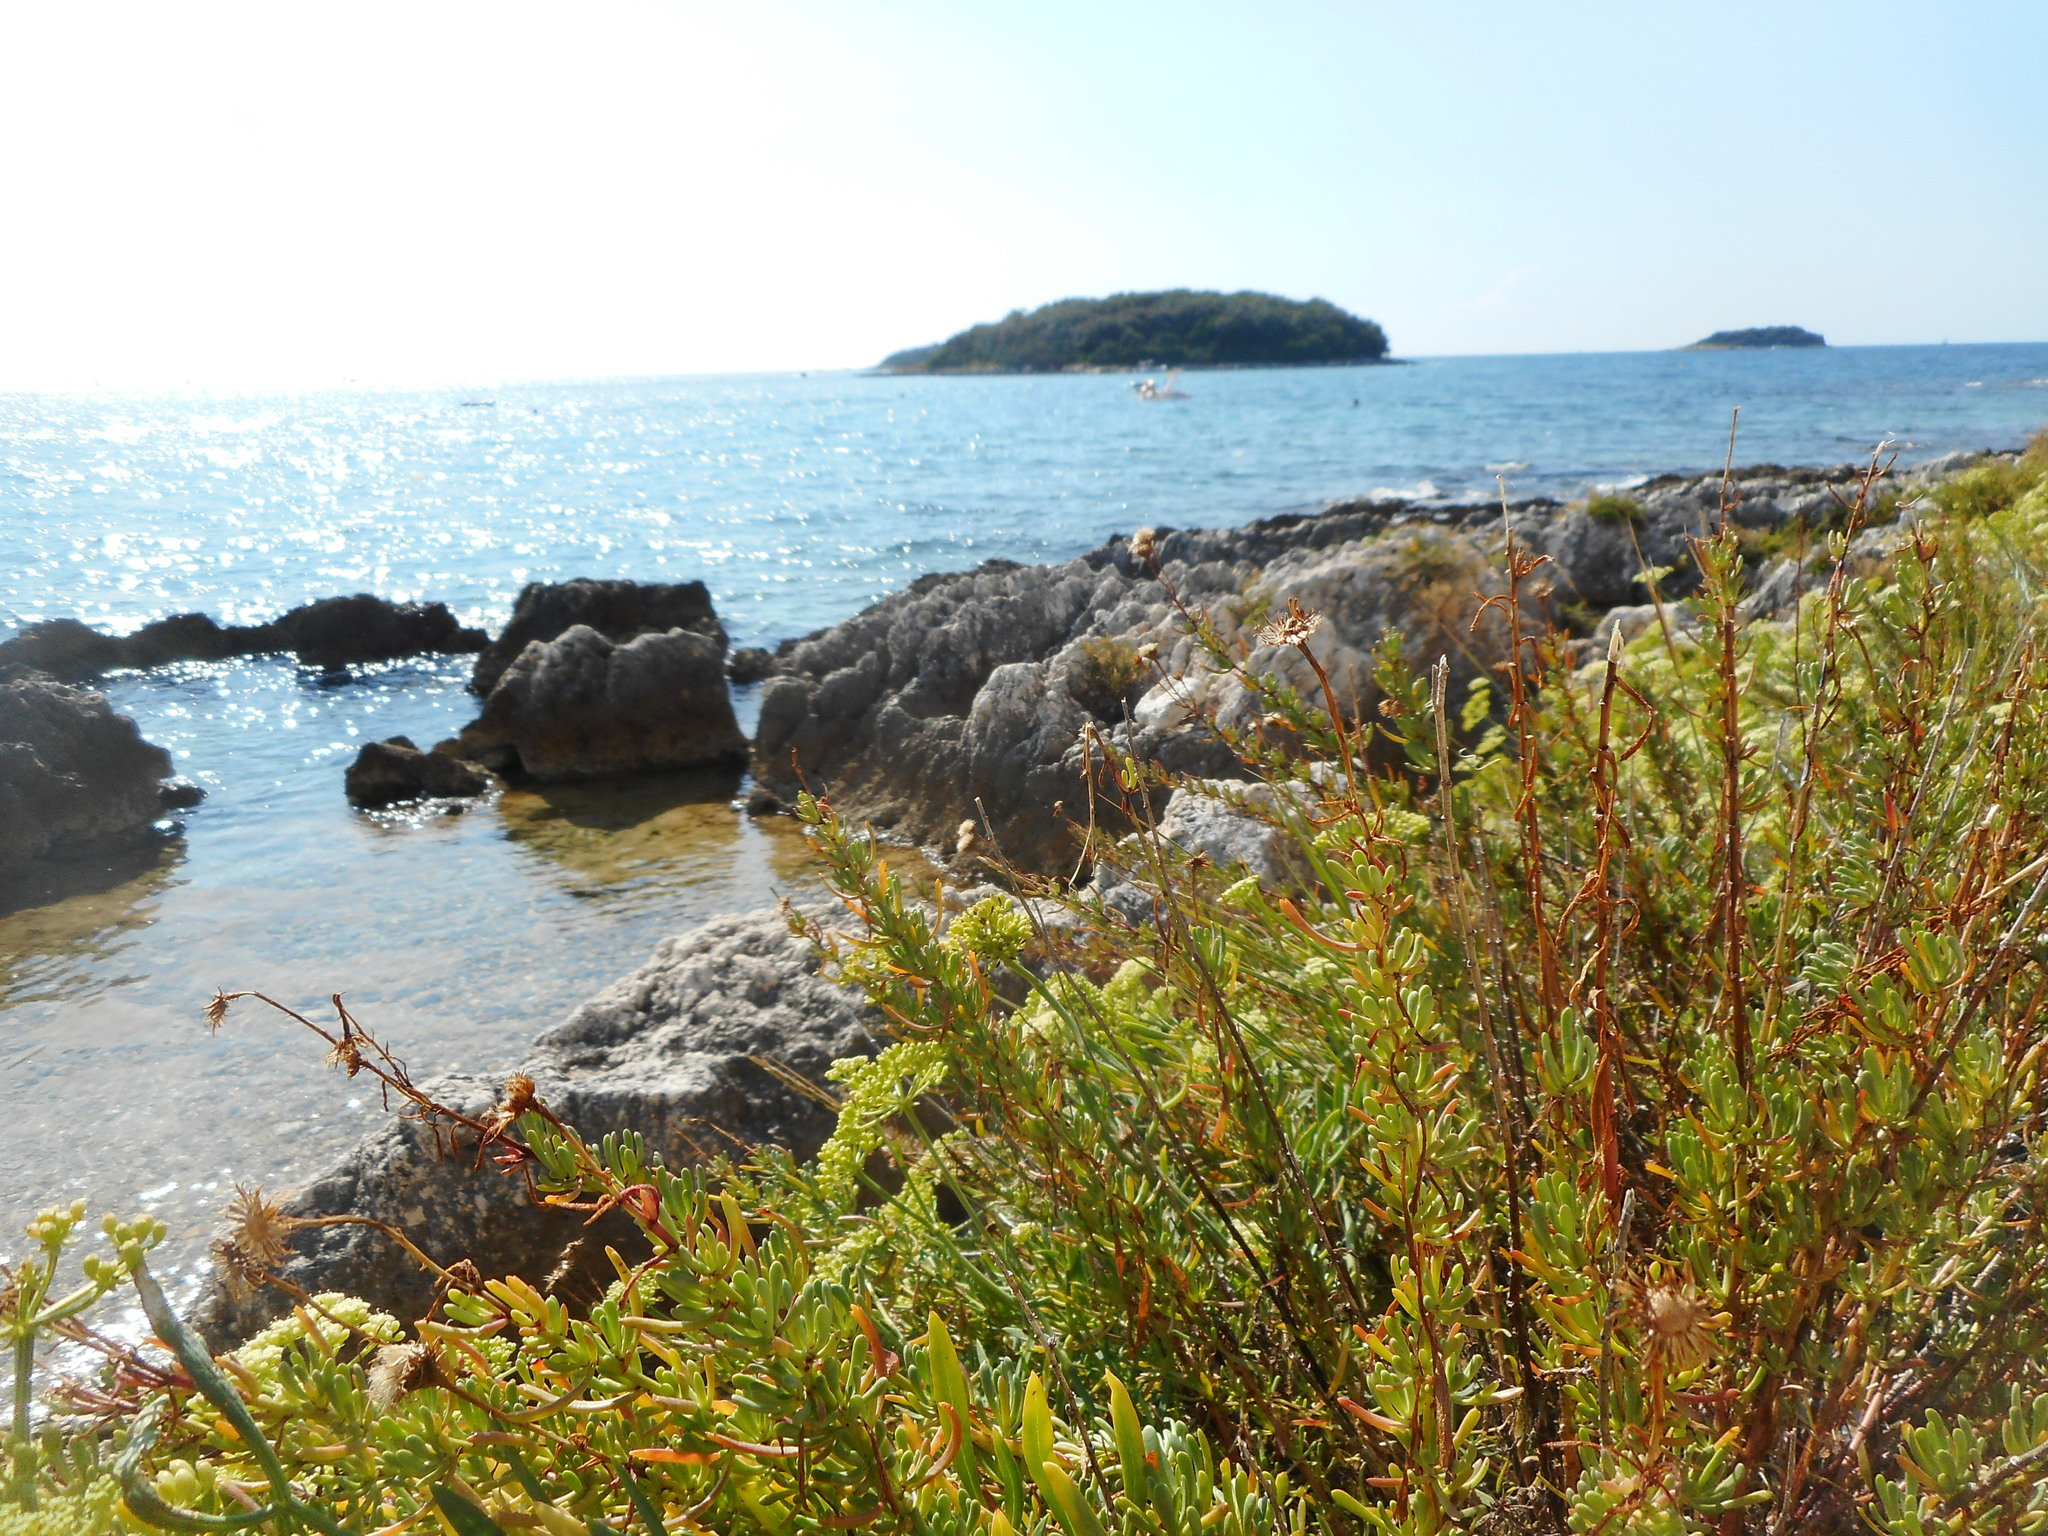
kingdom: Plantae
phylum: Tracheophyta
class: Magnoliopsida
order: Asterales
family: Asteraceae
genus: Limbarda
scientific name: Limbarda crithmoides
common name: Golden samphire
